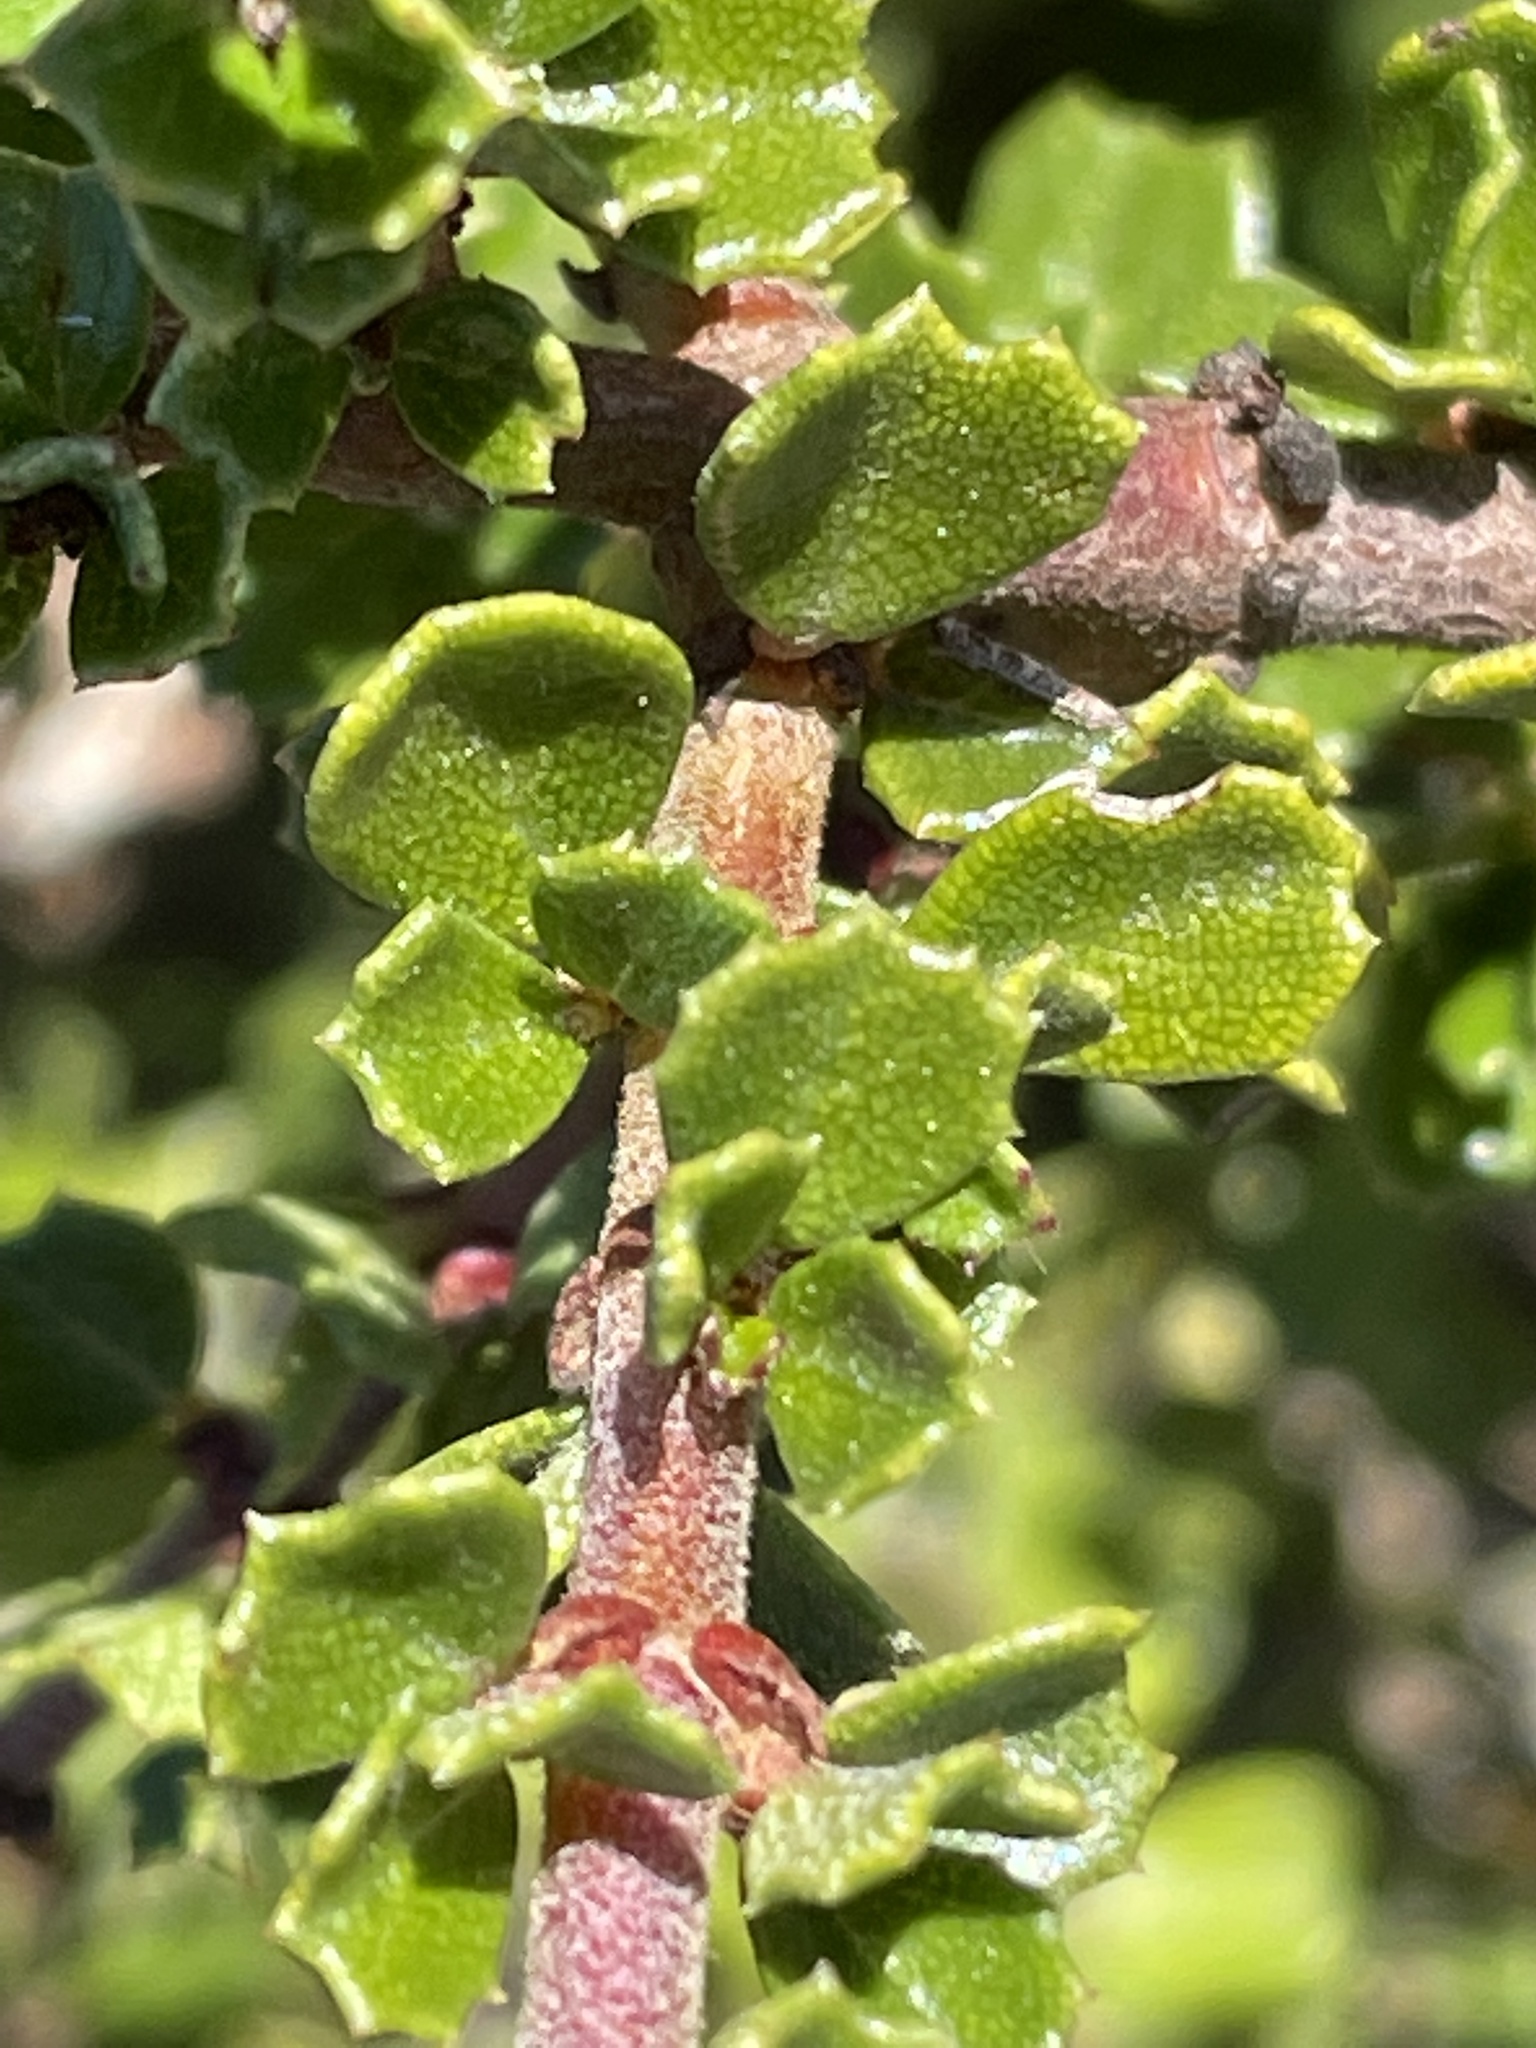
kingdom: Plantae
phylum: Tracheophyta
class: Magnoliopsida
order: Rosales
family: Rhamnaceae
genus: Ceanothus
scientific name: Ceanothus cuneatus
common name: Cuneate ceanothus
